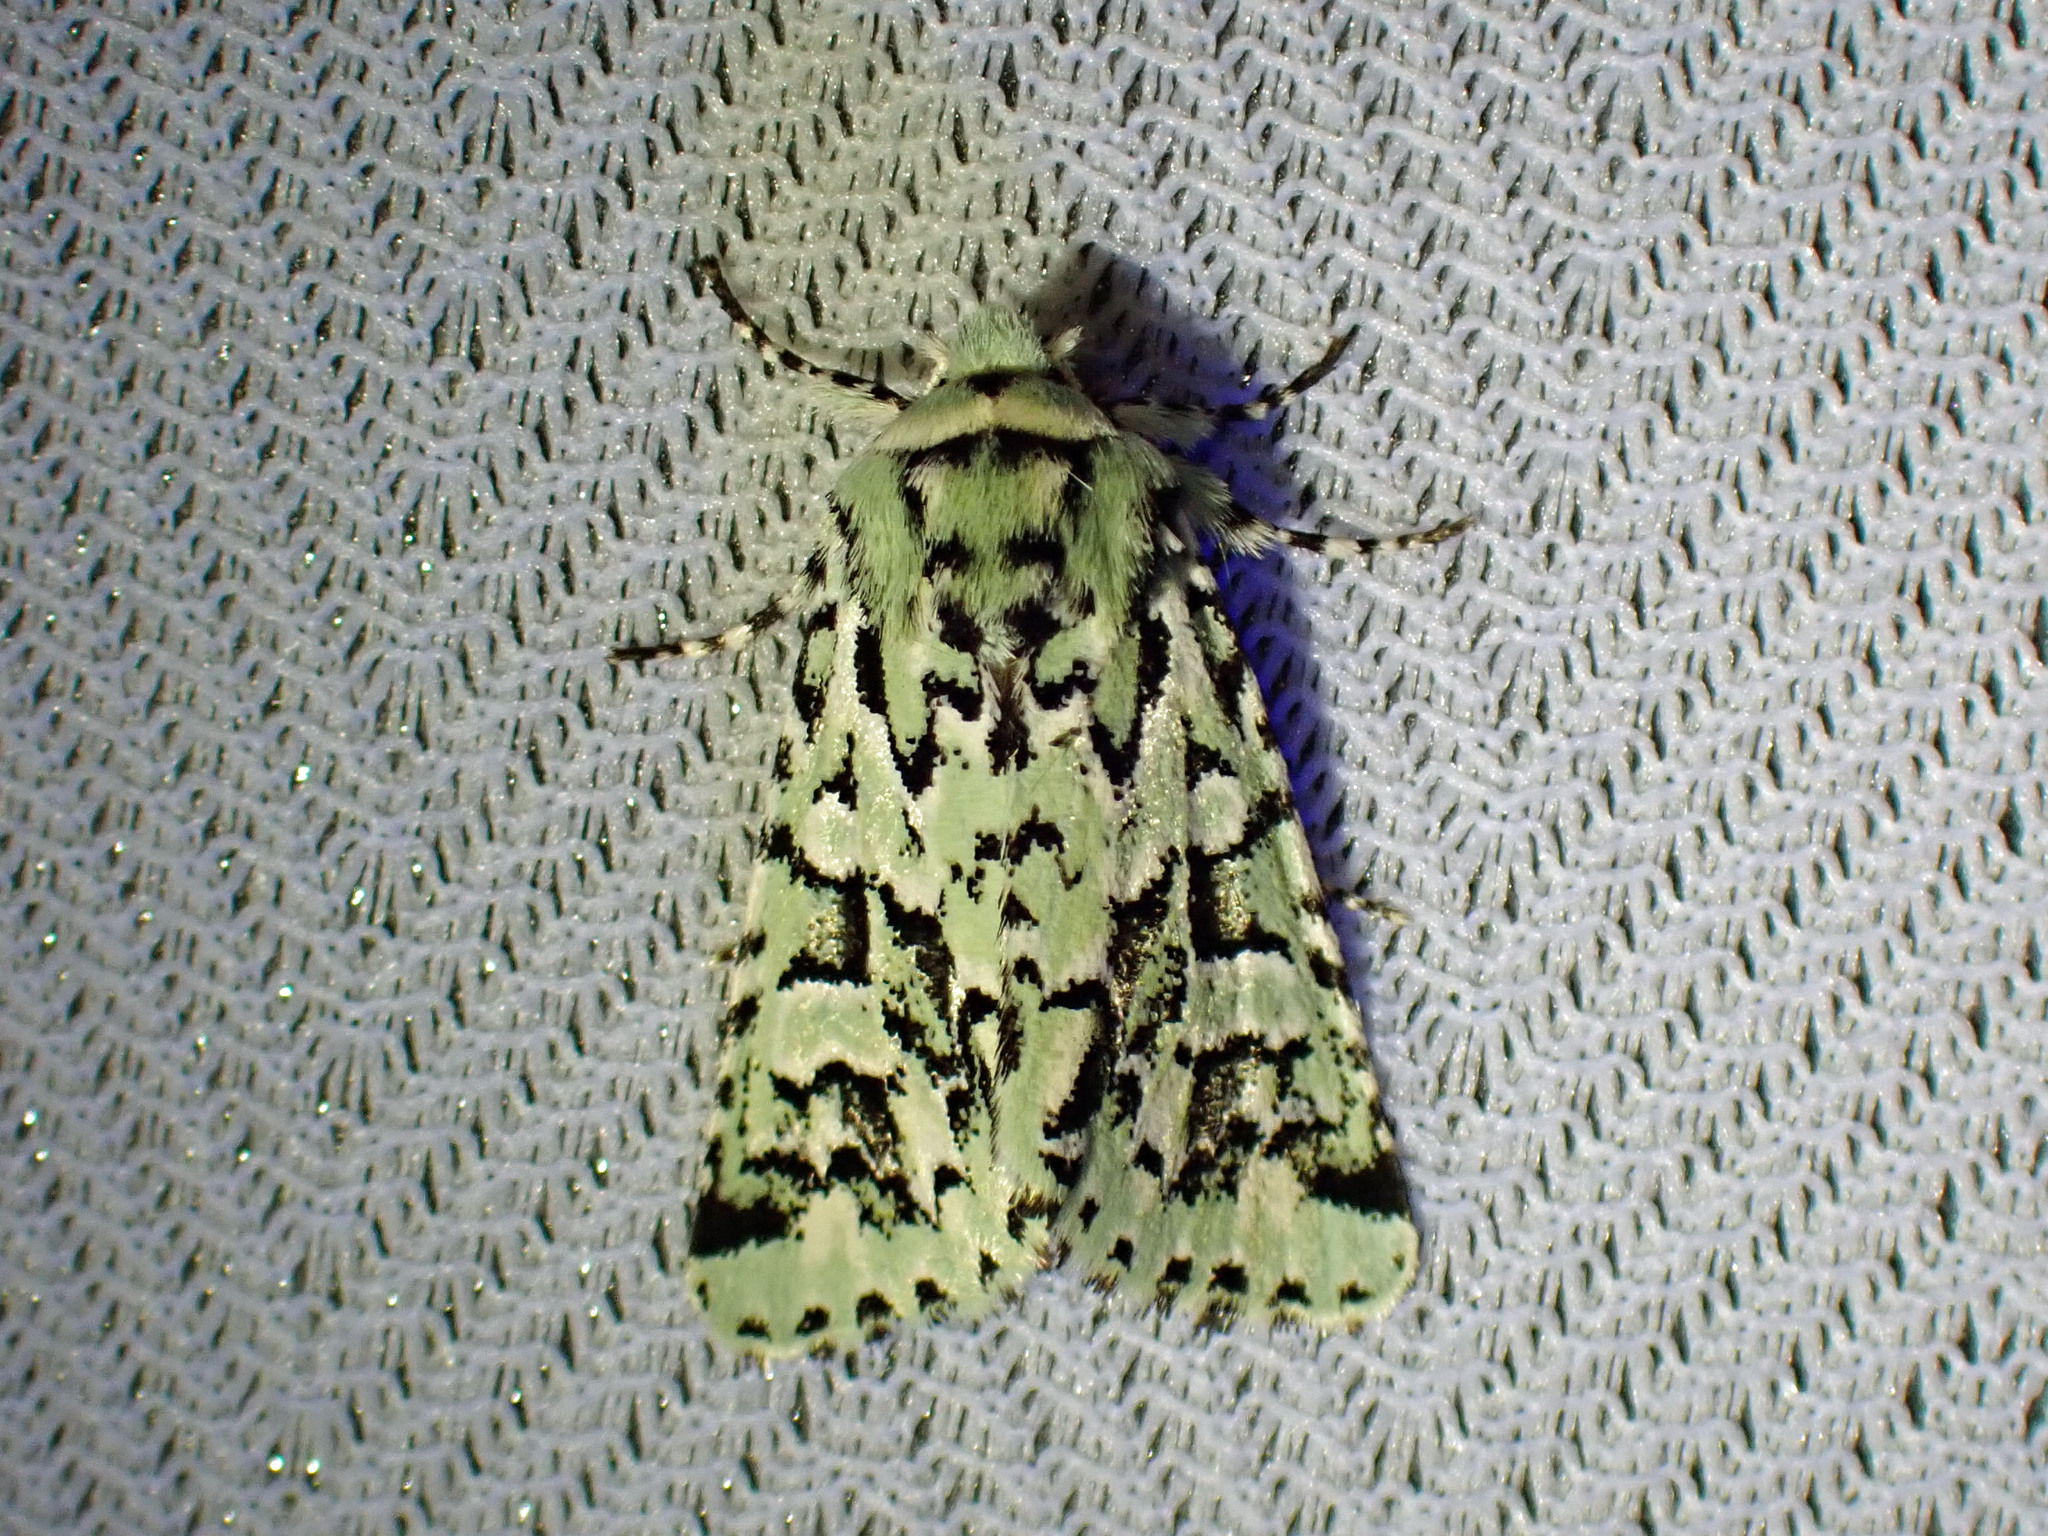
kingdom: Animalia
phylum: Arthropoda
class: Insecta
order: Lepidoptera
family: Noctuidae
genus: Feralia
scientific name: Feralia comstocki
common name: Comstock's sallow
